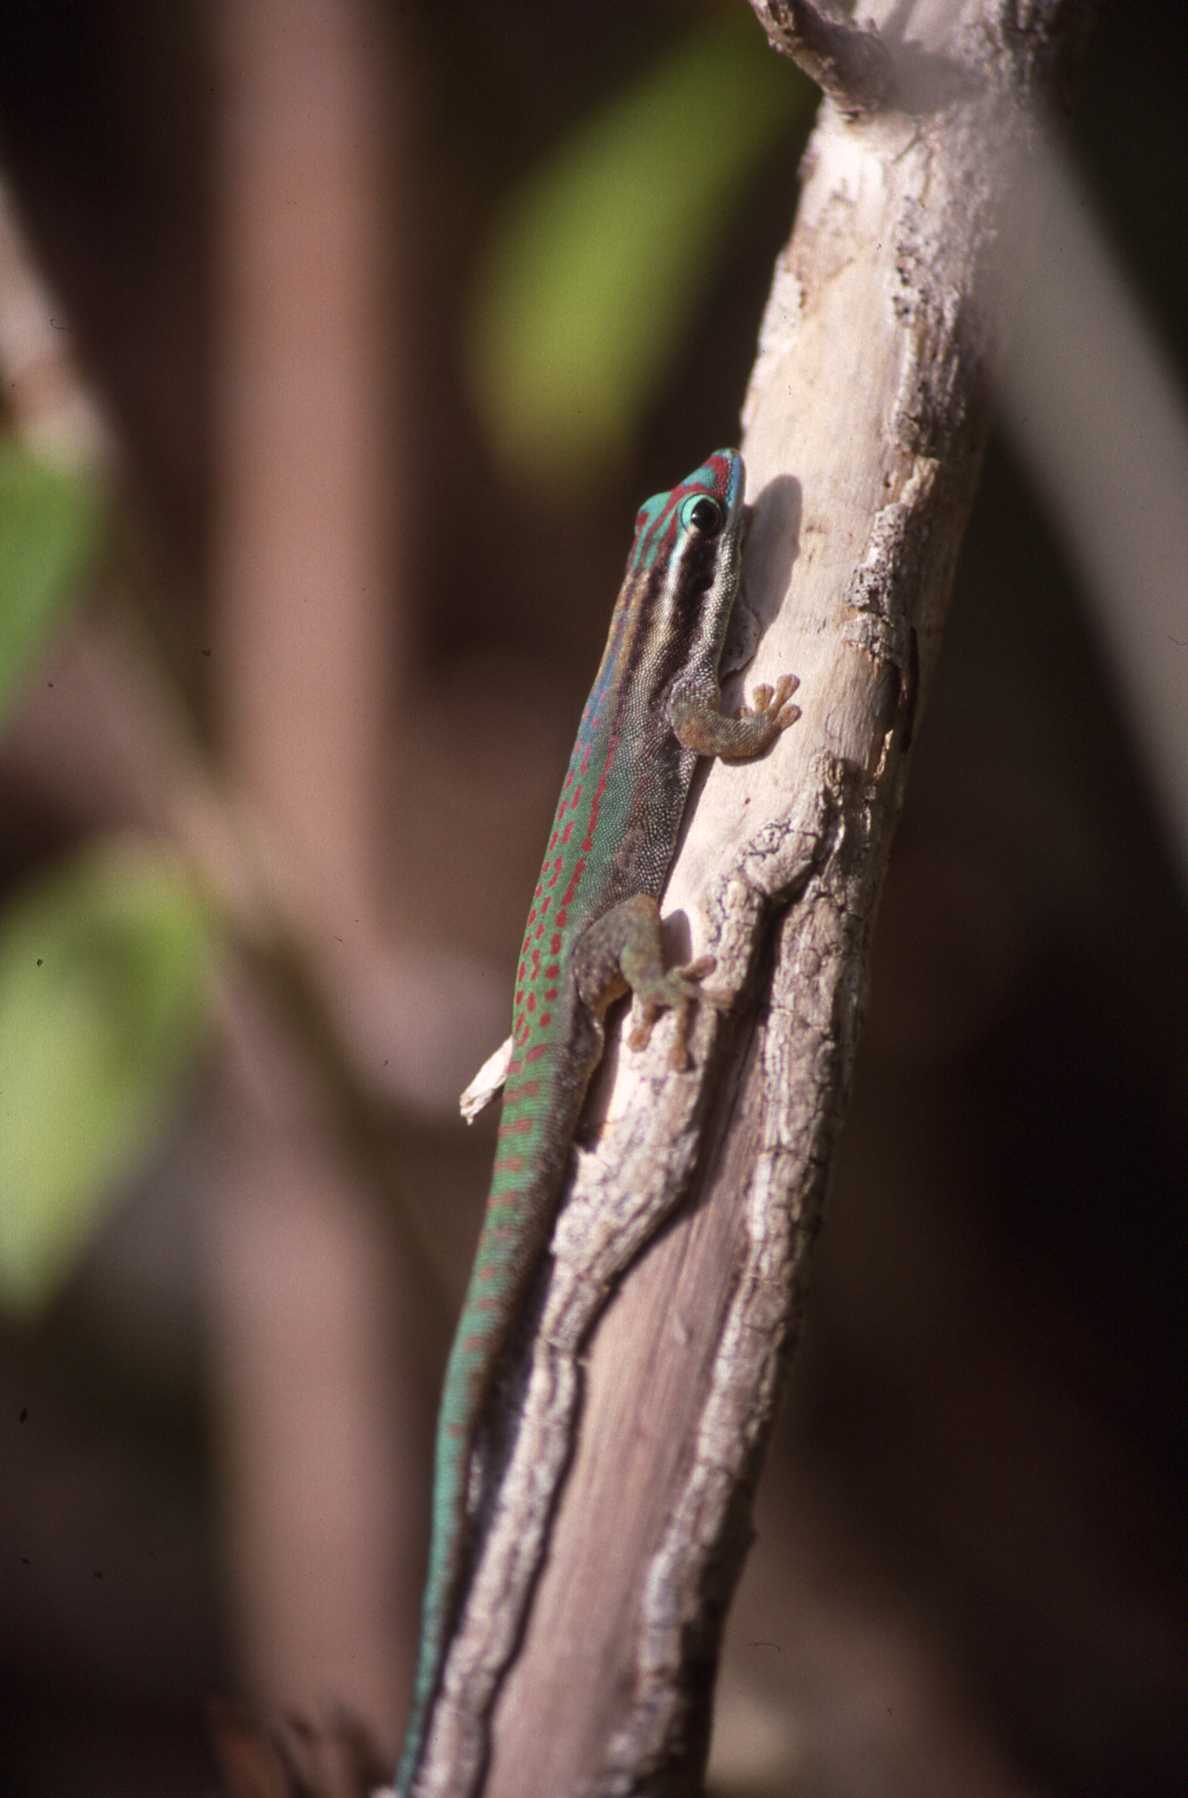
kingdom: Animalia
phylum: Chordata
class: Squamata
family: Gekkonidae
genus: Phelsuma
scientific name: Phelsuma ornata
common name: Ornate day gecko
